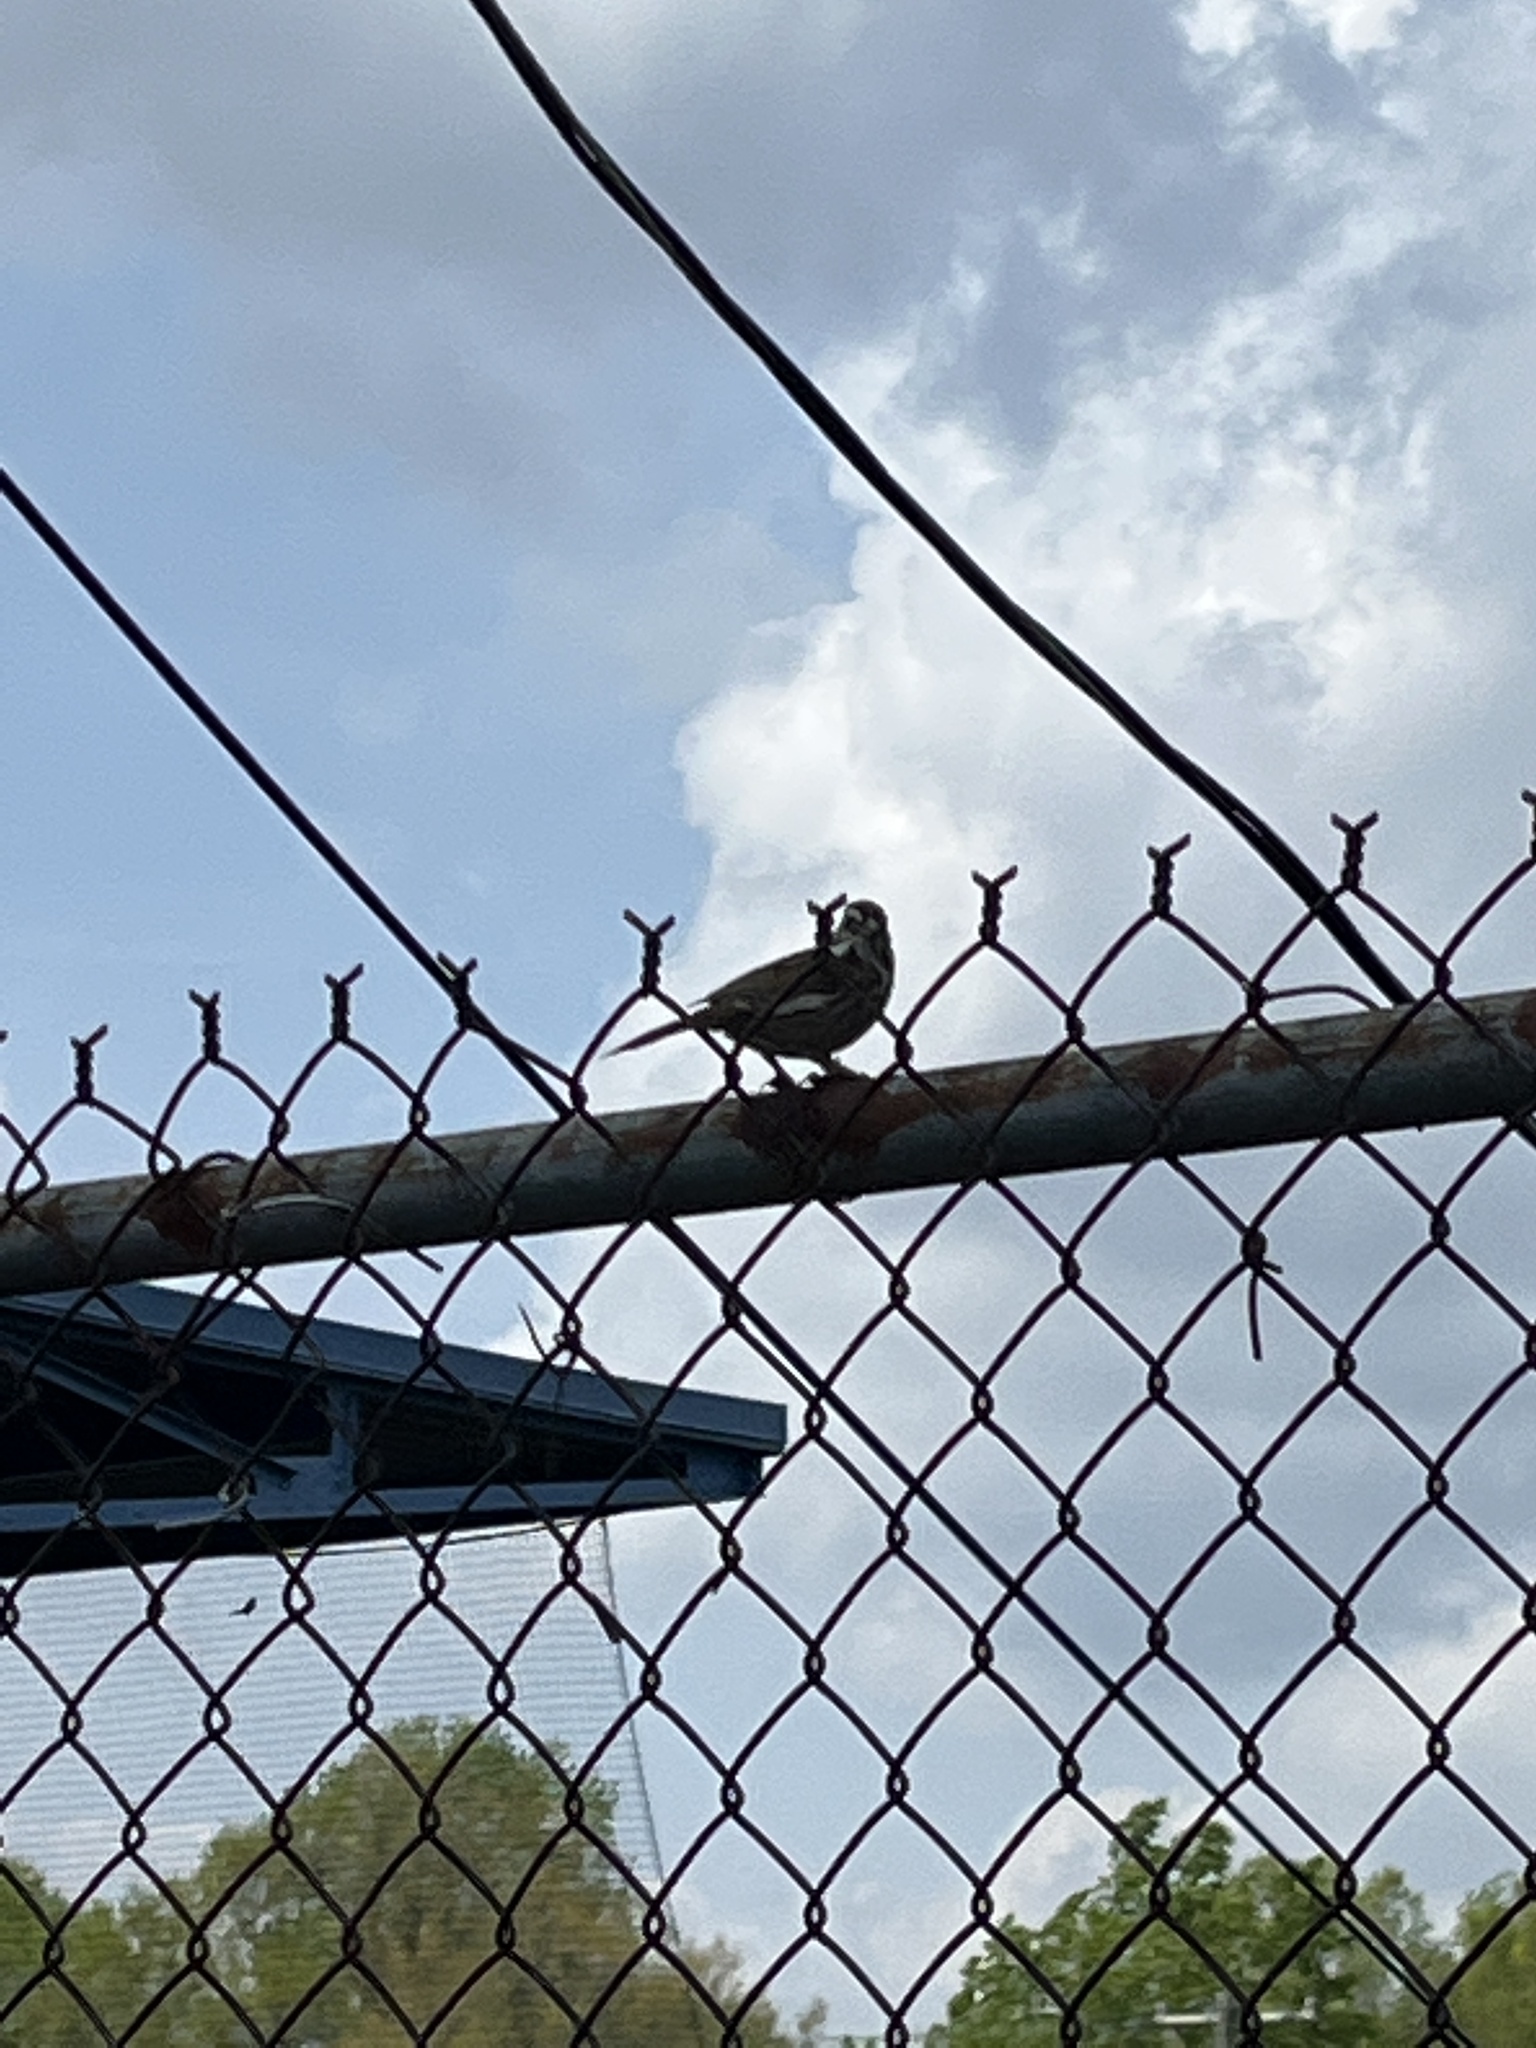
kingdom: Animalia
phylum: Chordata
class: Aves
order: Passeriformes
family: Passerellidae
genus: Melospiza
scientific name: Melospiza melodia
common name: Song sparrow
